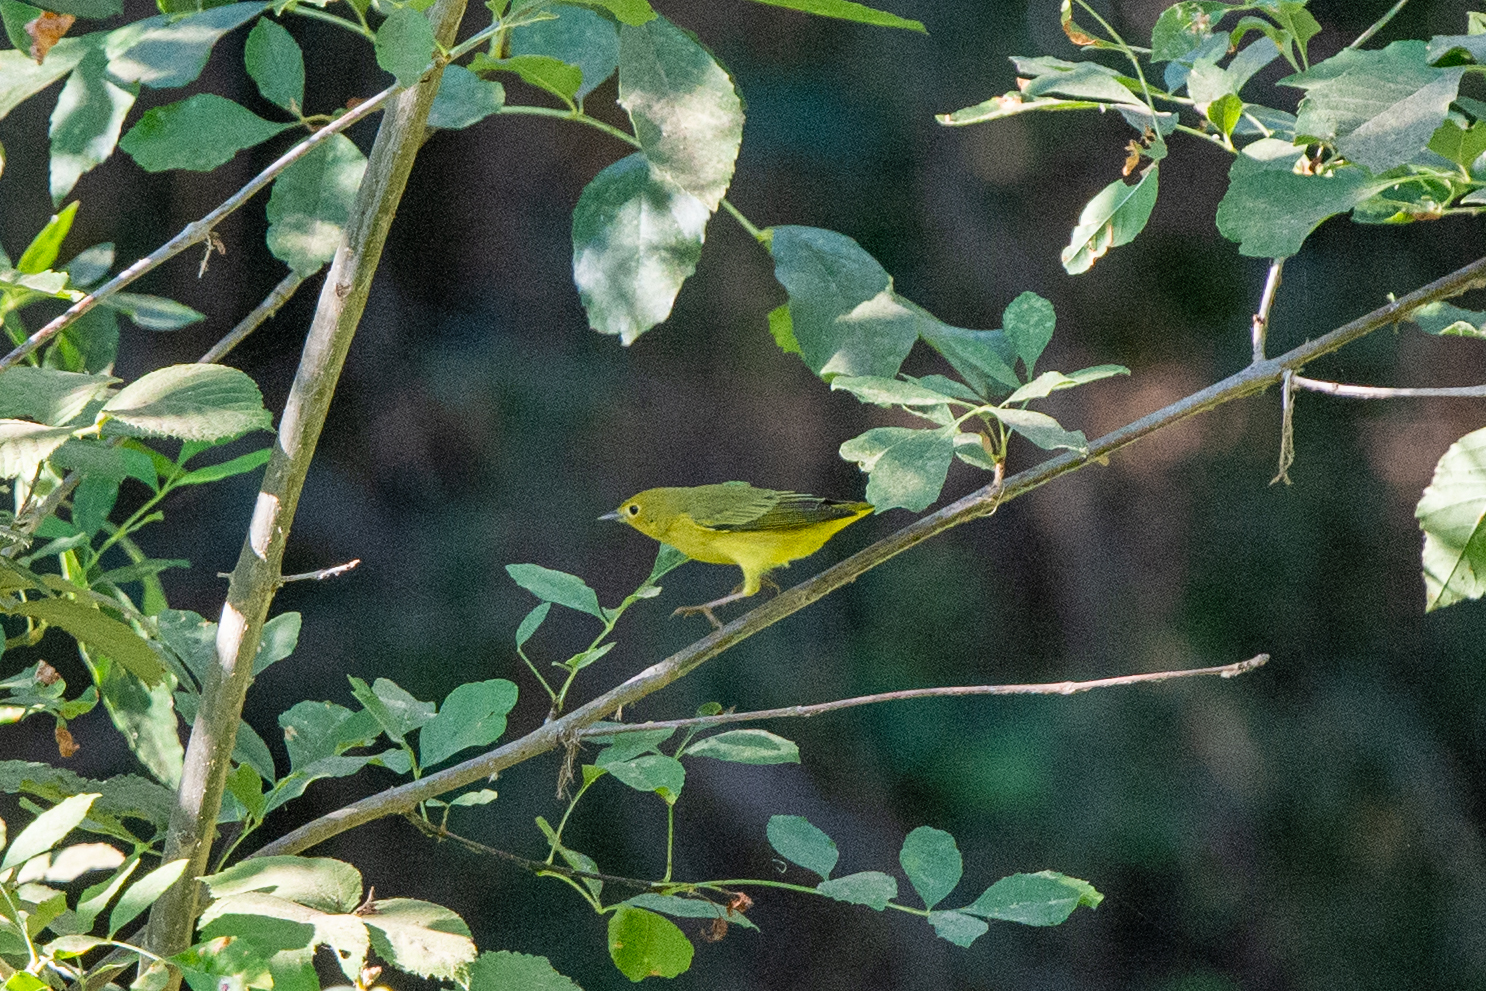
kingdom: Animalia
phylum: Chordata
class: Aves
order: Passeriformes
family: Parulidae
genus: Setophaga
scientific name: Setophaga petechia
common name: Yellow warbler
